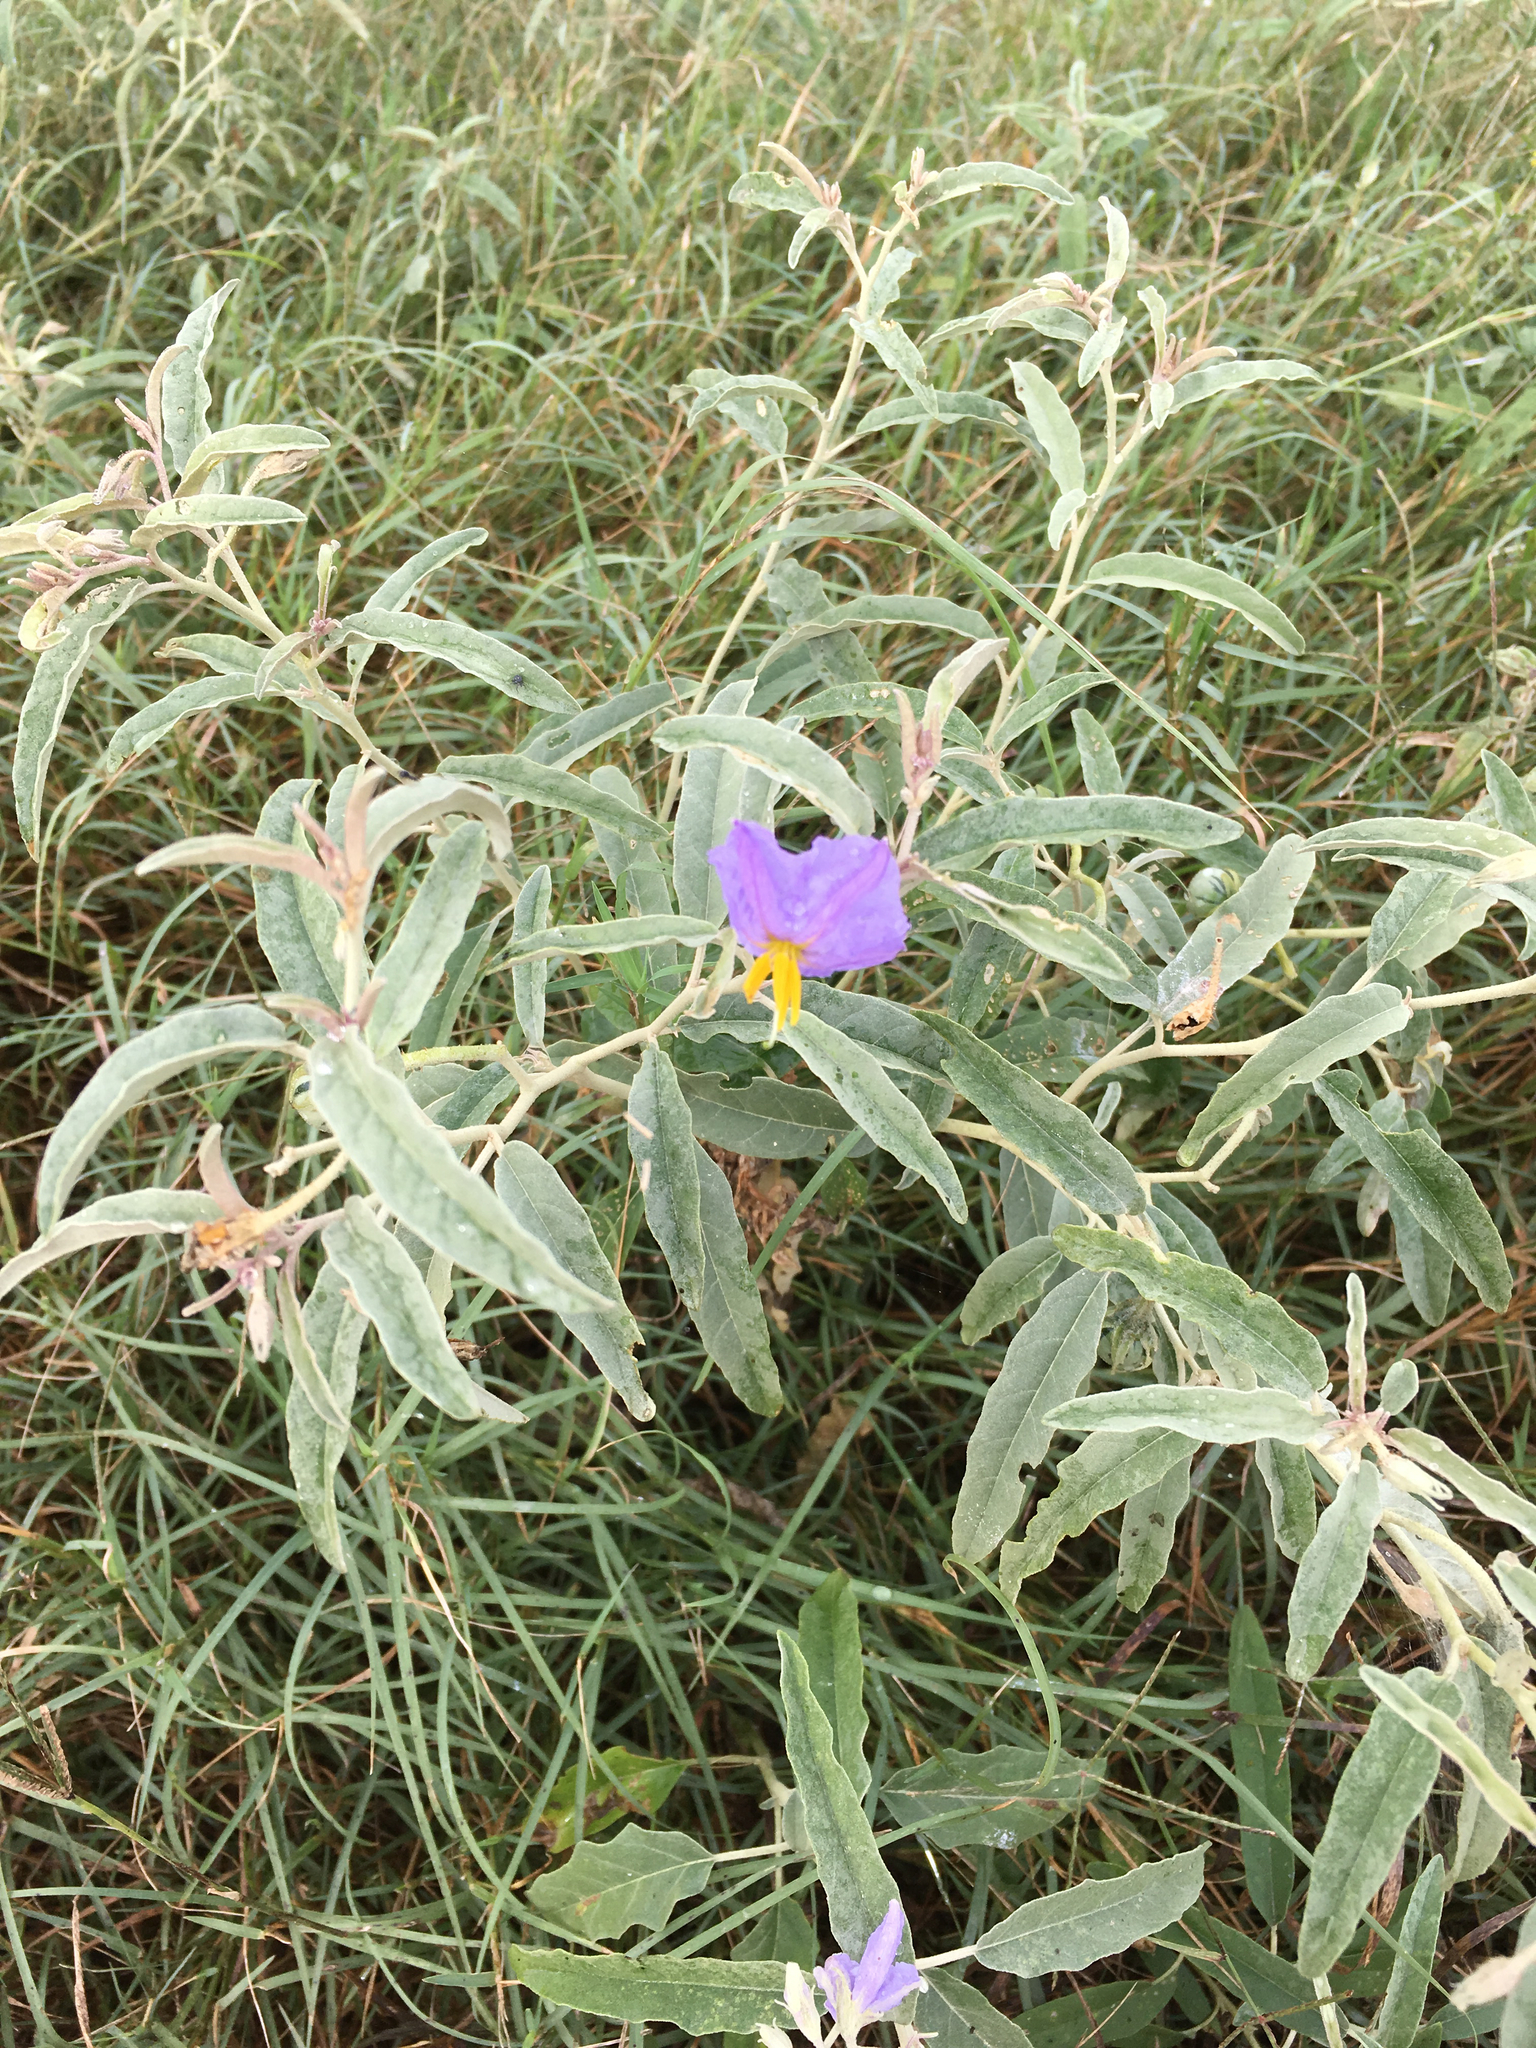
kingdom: Plantae
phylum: Tracheophyta
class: Magnoliopsida
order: Solanales
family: Solanaceae
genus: Solanum
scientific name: Solanum elaeagnifolium
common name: Silverleaf nightshade
